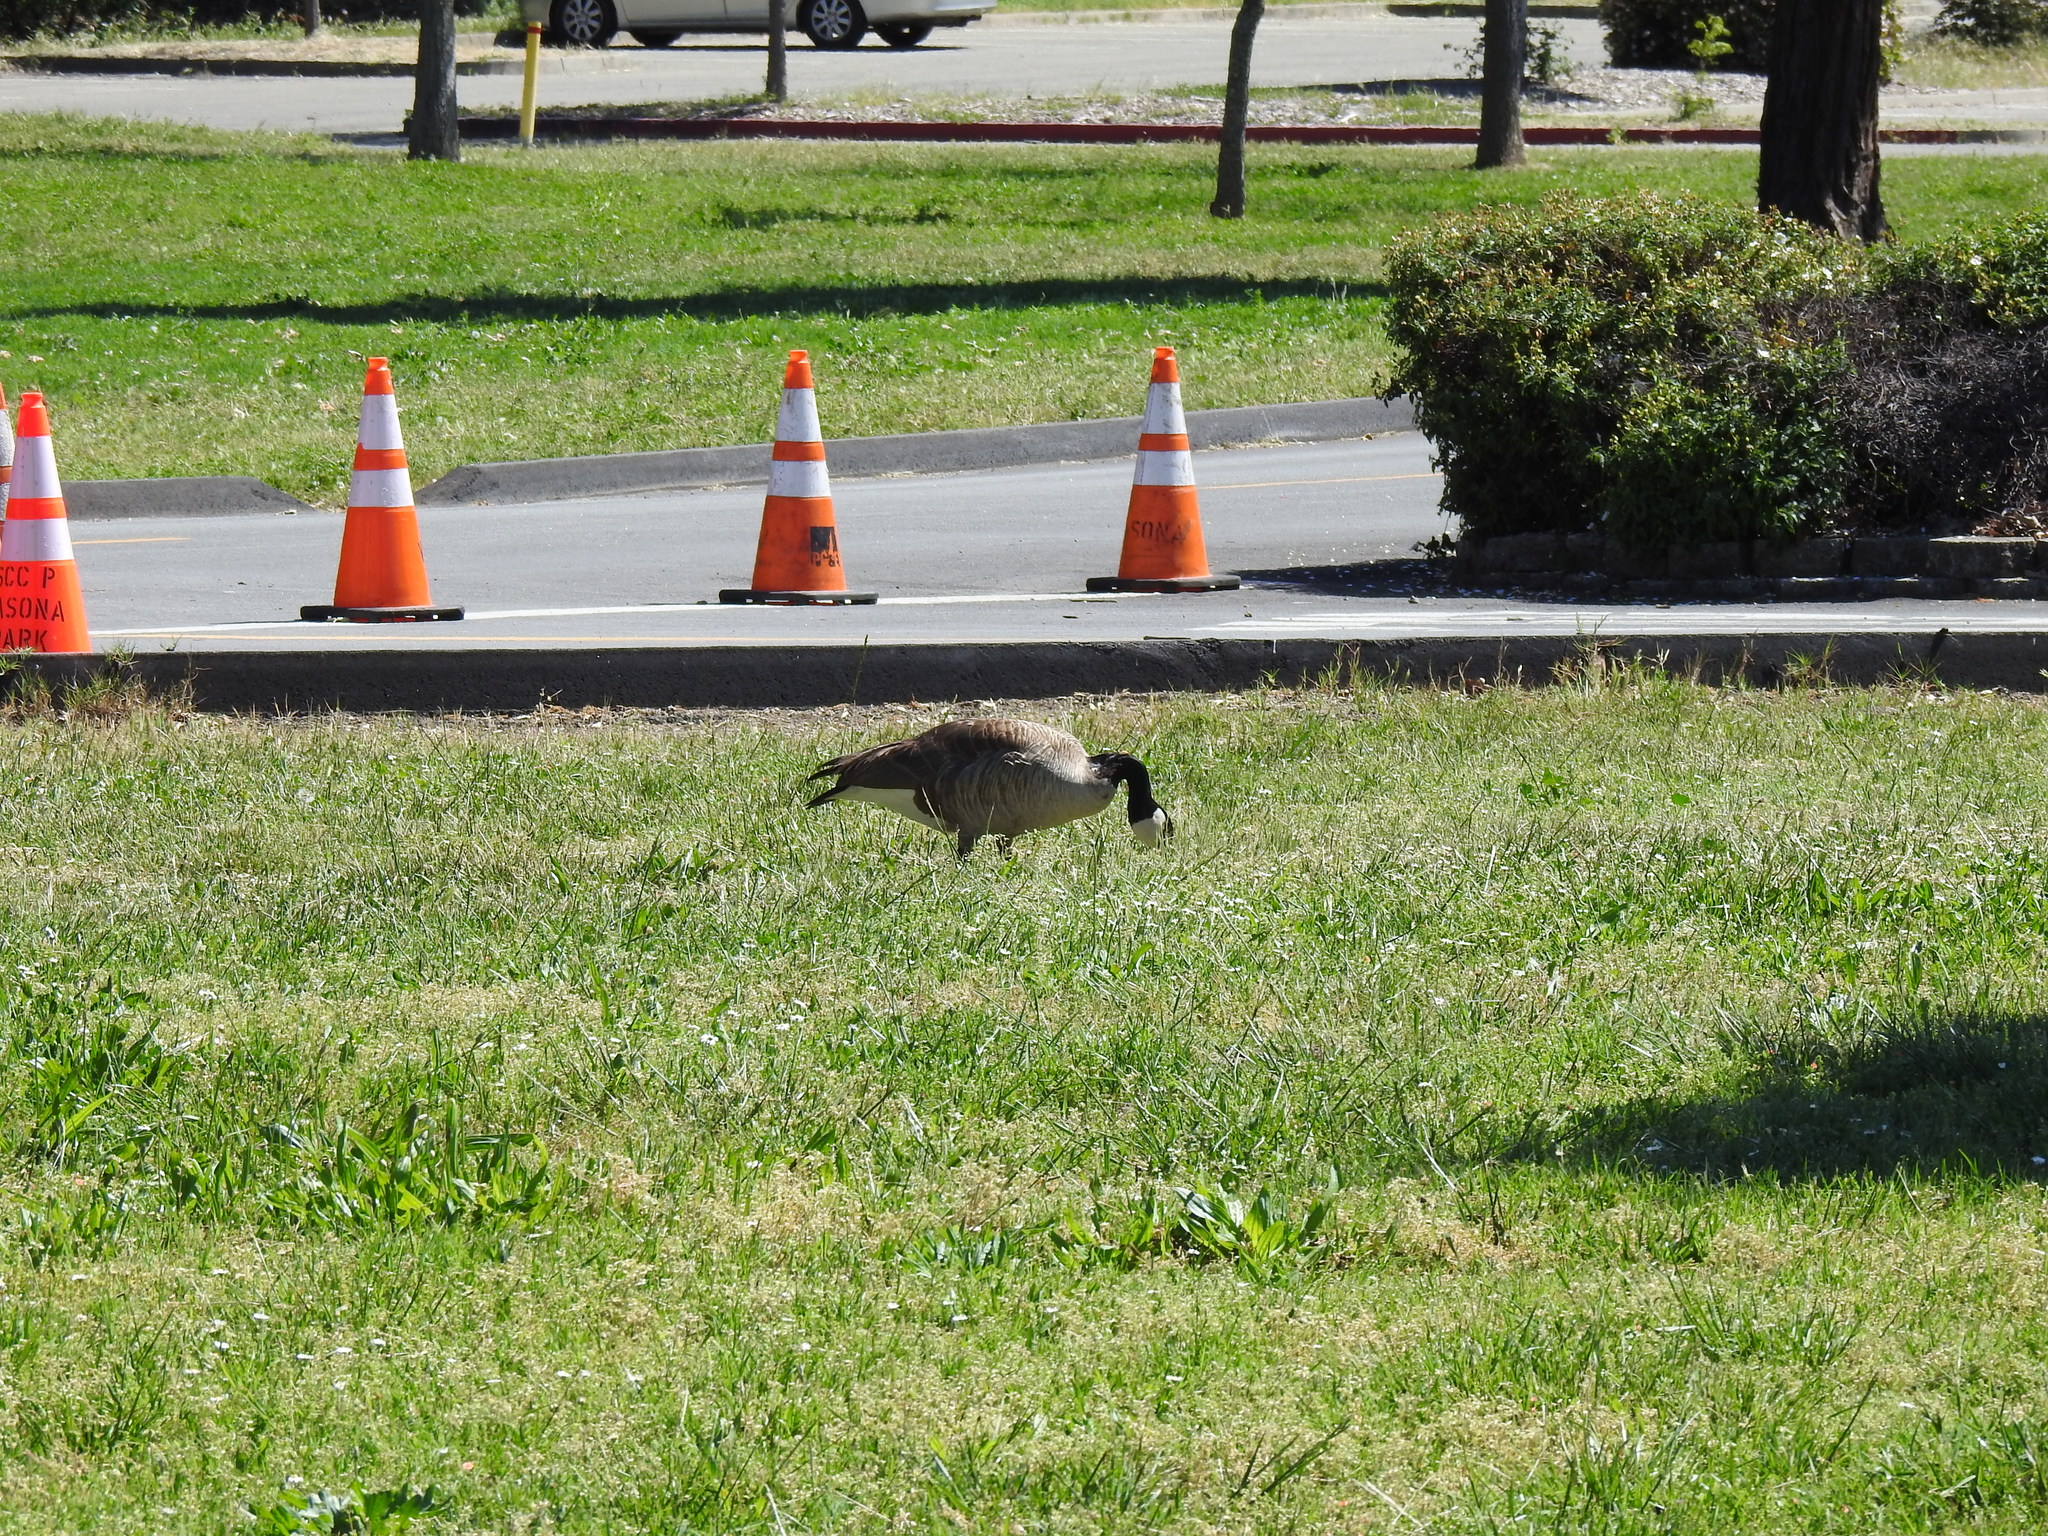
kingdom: Animalia
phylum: Chordata
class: Aves
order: Anseriformes
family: Anatidae
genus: Branta
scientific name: Branta canadensis
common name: Canada goose
